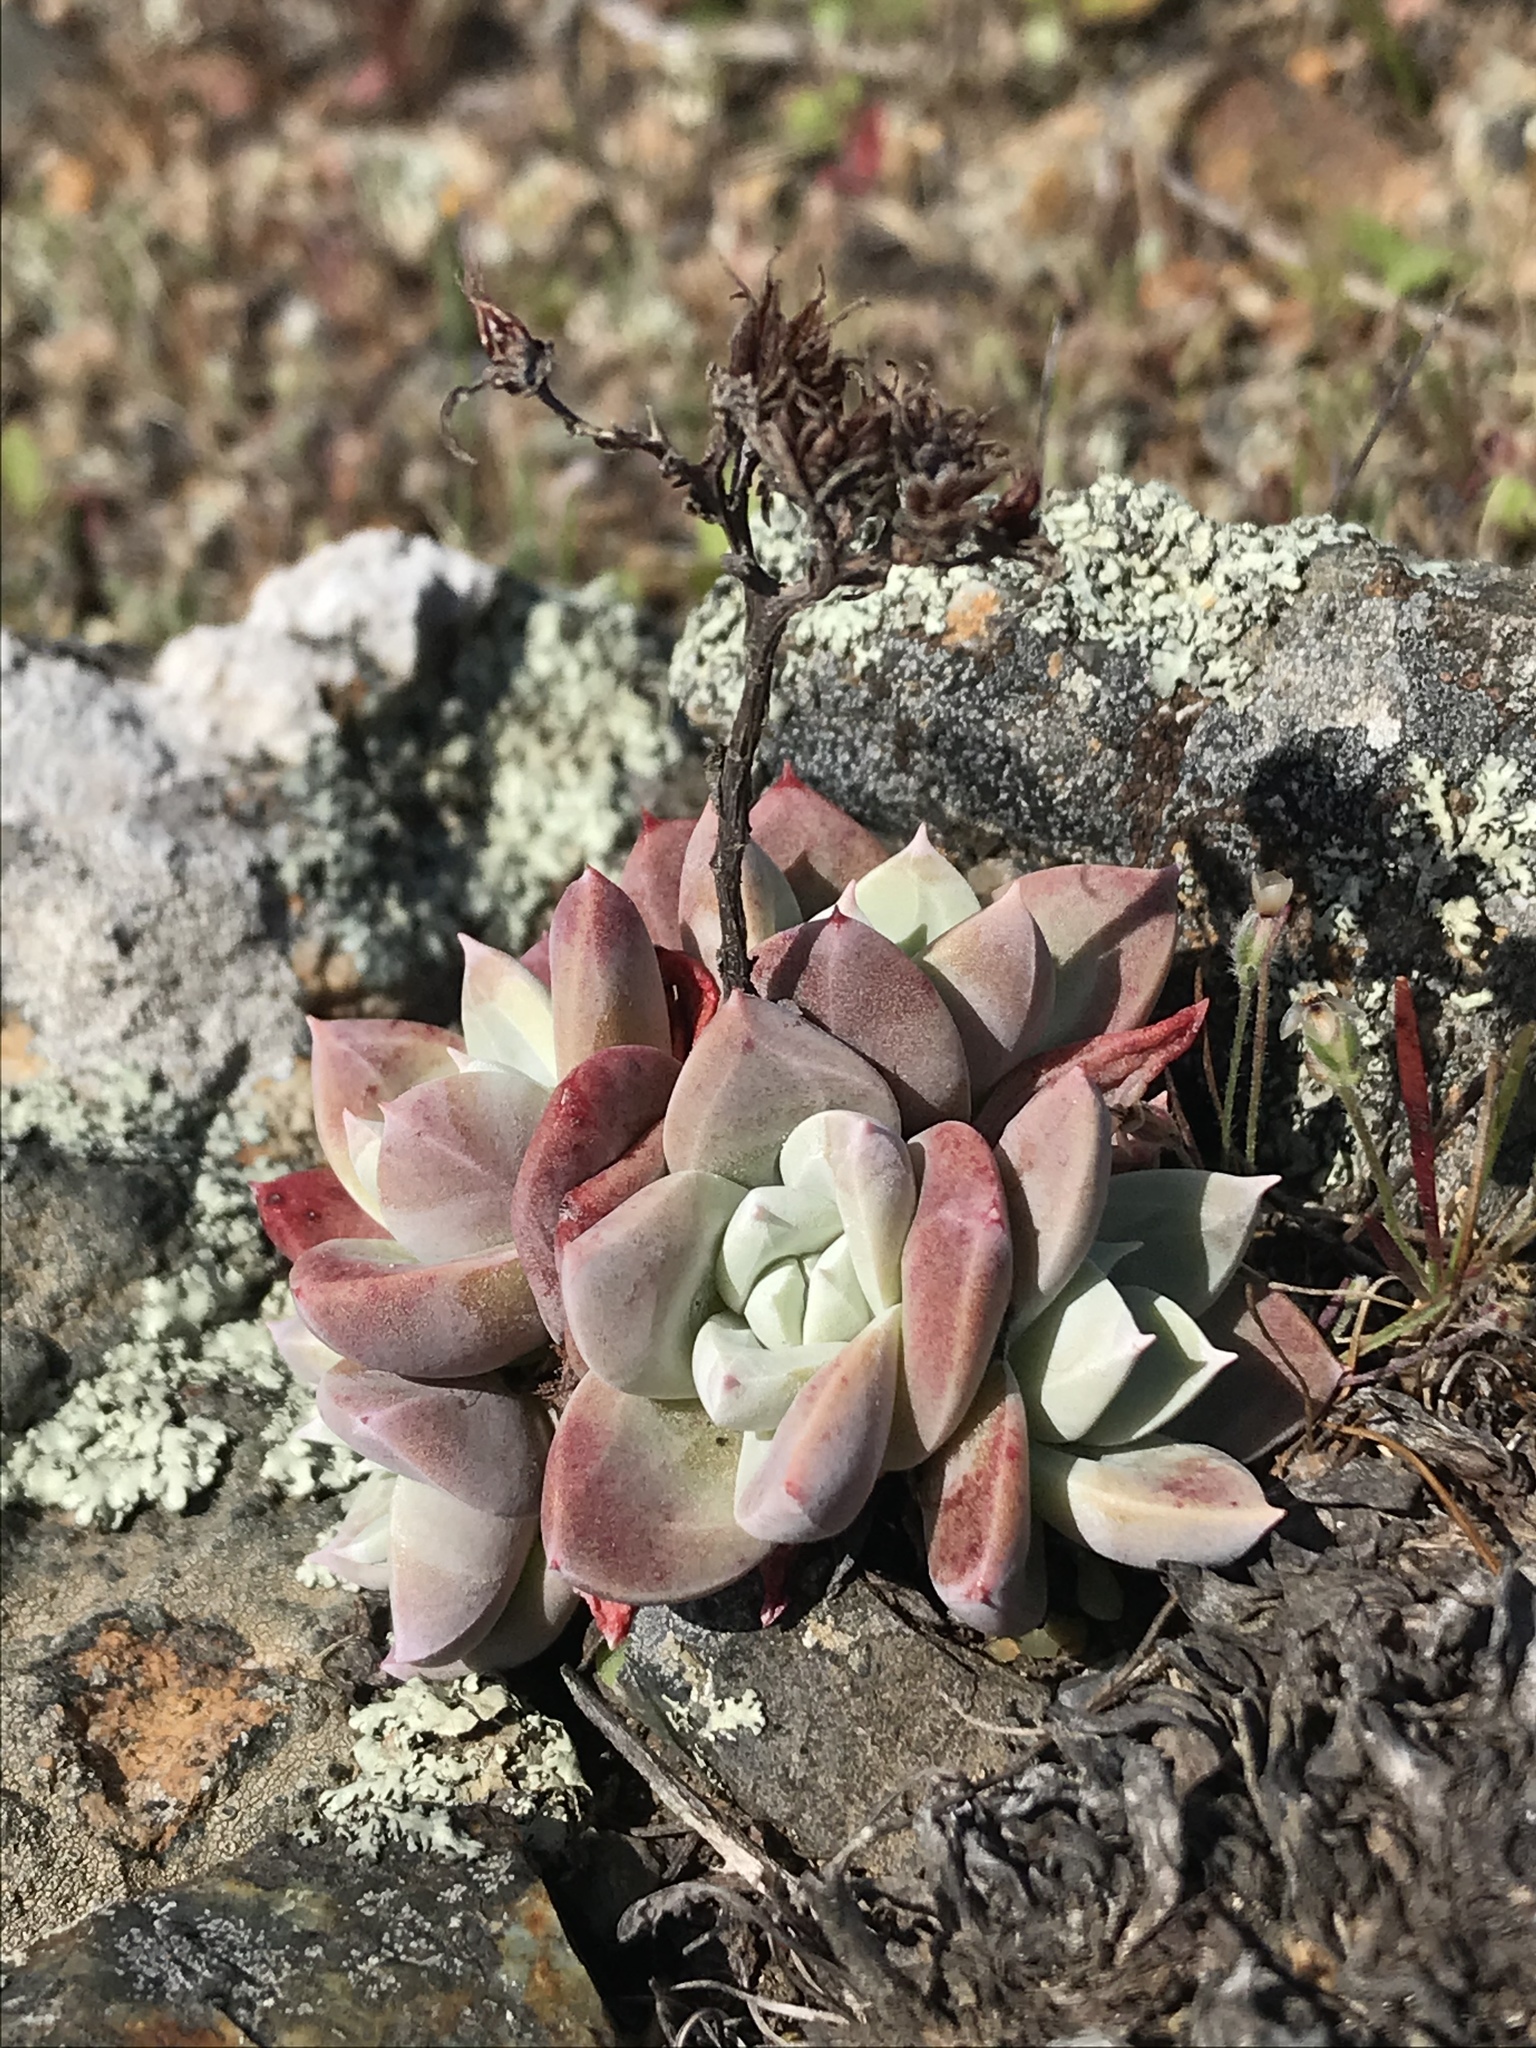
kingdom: Plantae
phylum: Tracheophyta
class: Magnoliopsida
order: Saxifragales
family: Crassulaceae
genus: Dudleya
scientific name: Dudleya farinosa
